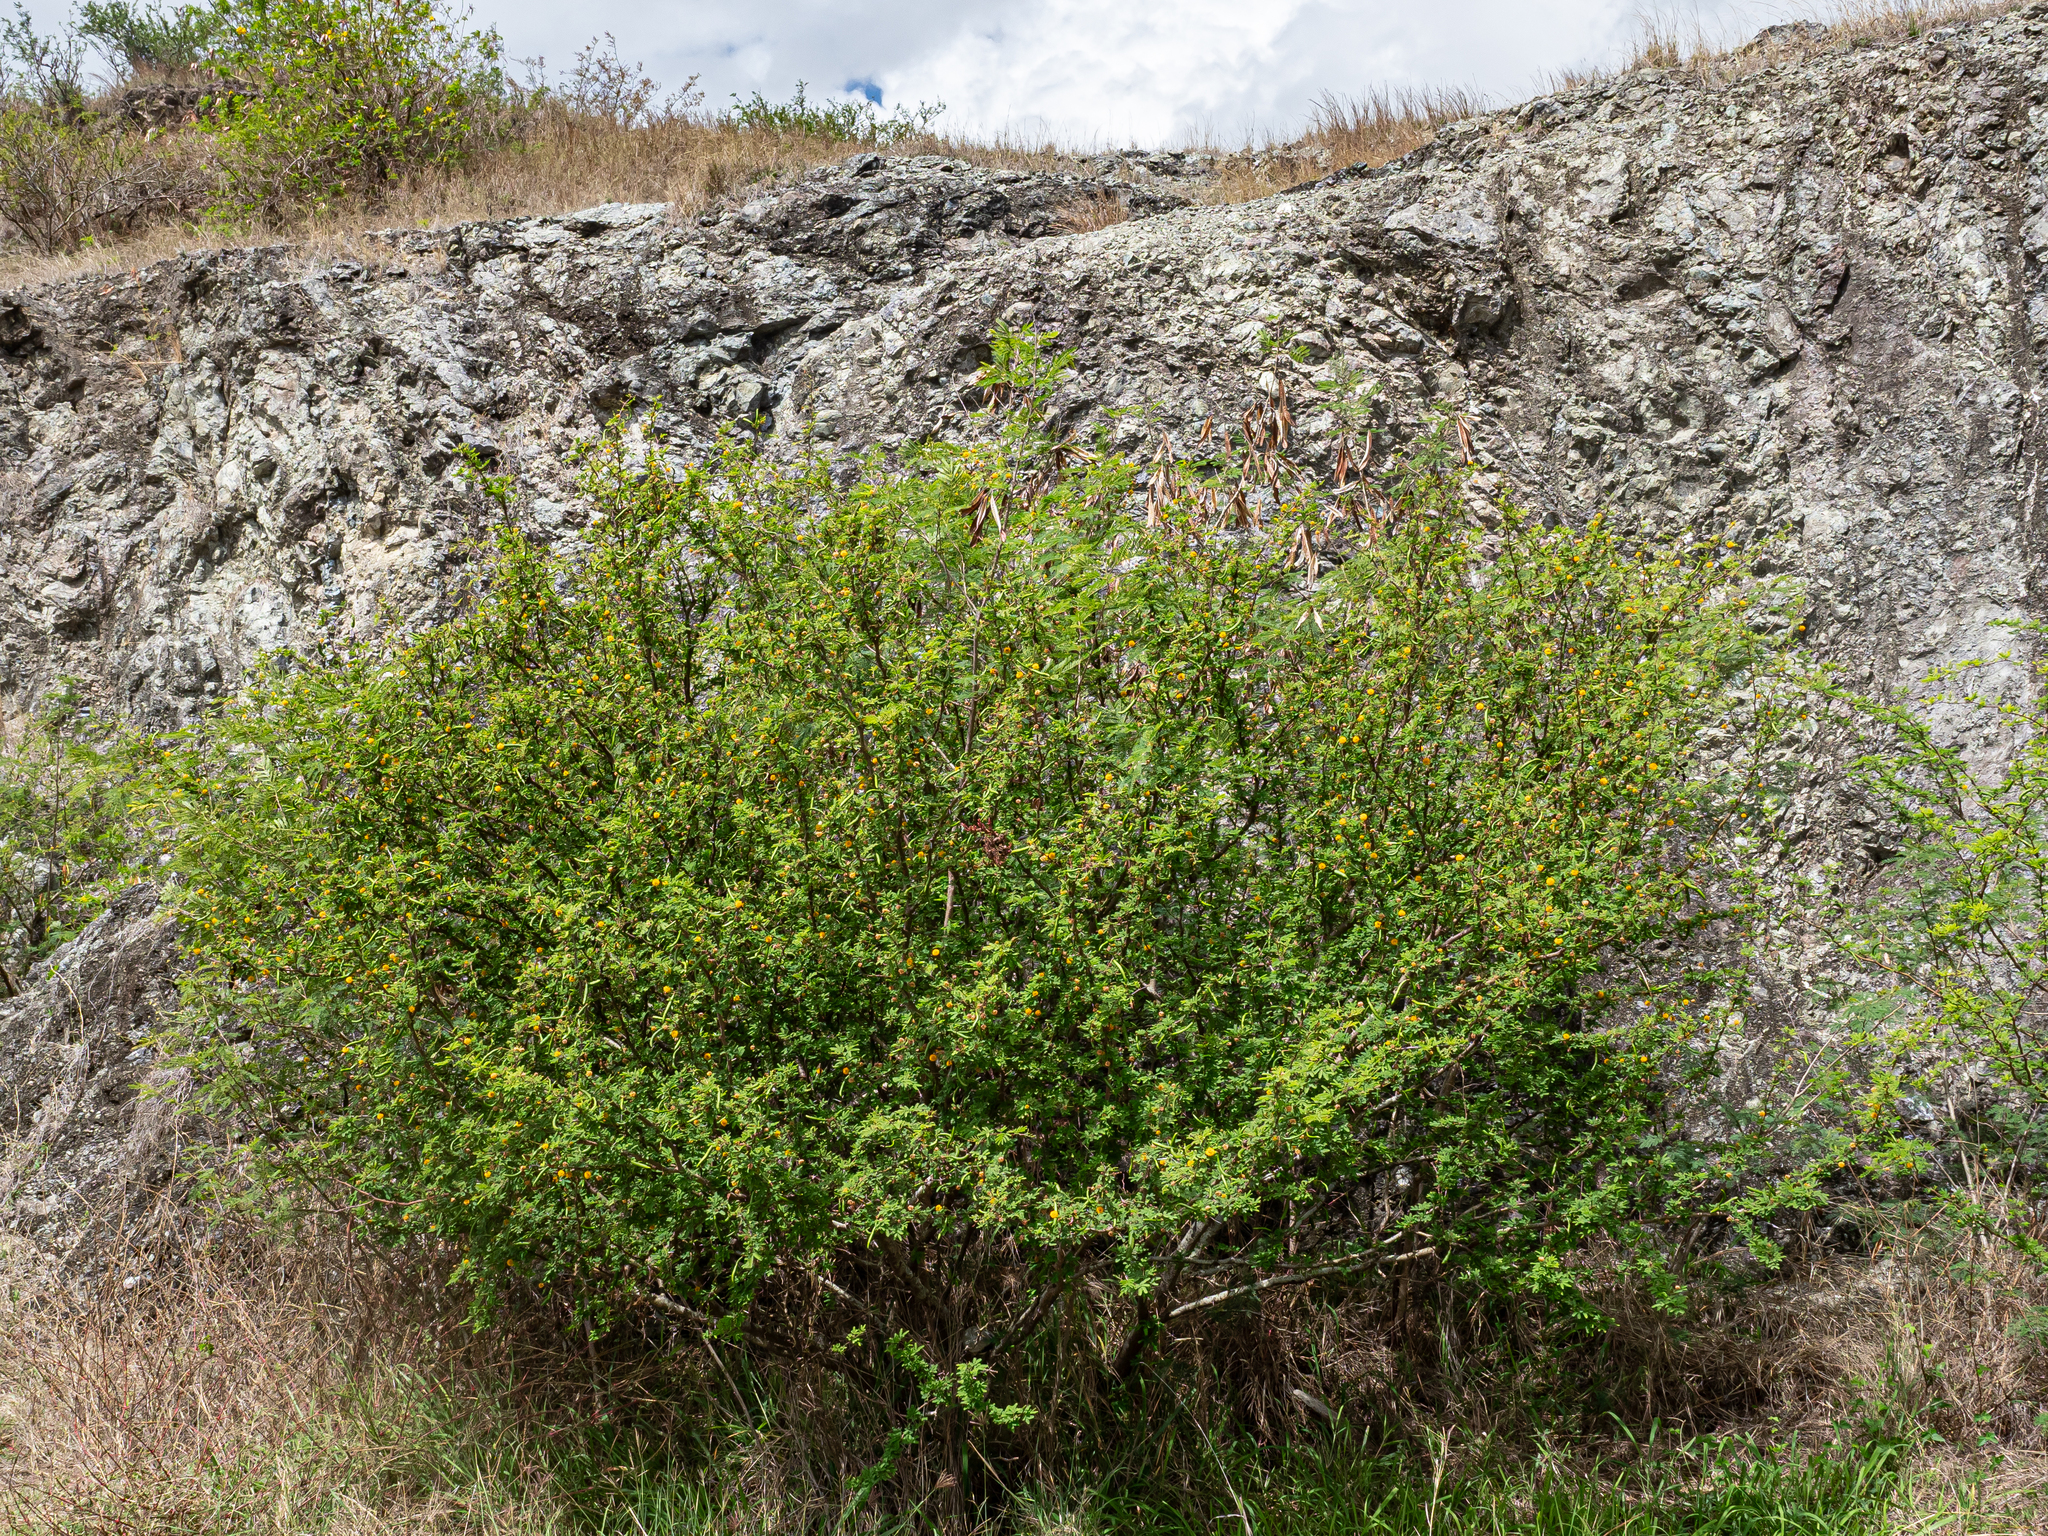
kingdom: Plantae
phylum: Tracheophyta
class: Magnoliopsida
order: Fabales
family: Fabaceae
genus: Vachellia
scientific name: Vachellia farnesiana
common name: Sweet acacia
